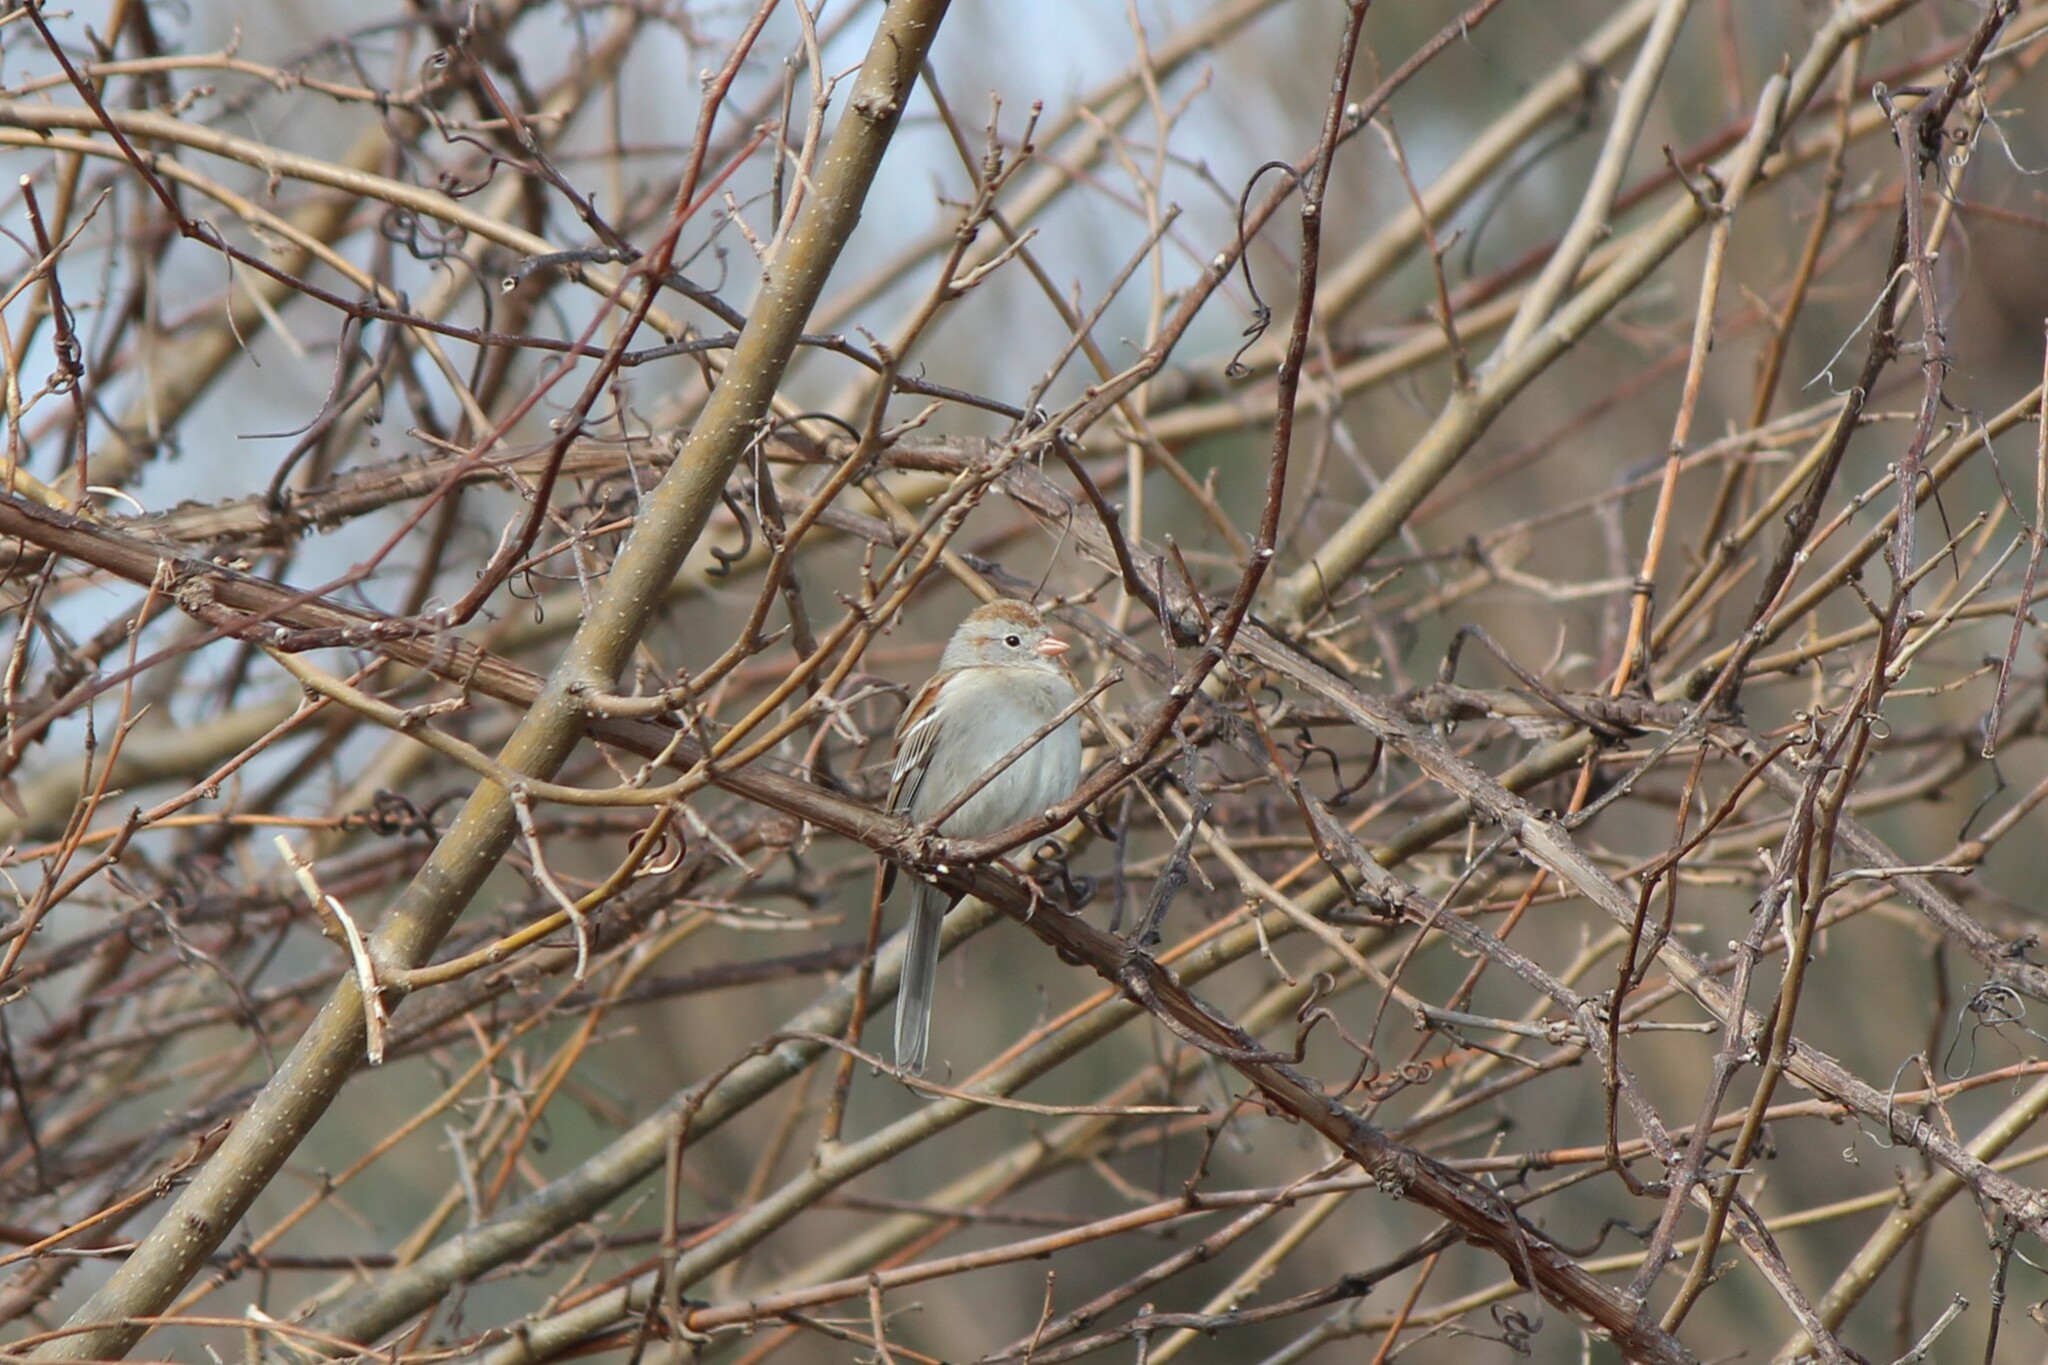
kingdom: Animalia
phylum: Chordata
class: Aves
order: Passeriformes
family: Passerellidae
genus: Spizelloides
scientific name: Spizelloides arborea
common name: American tree sparrow
